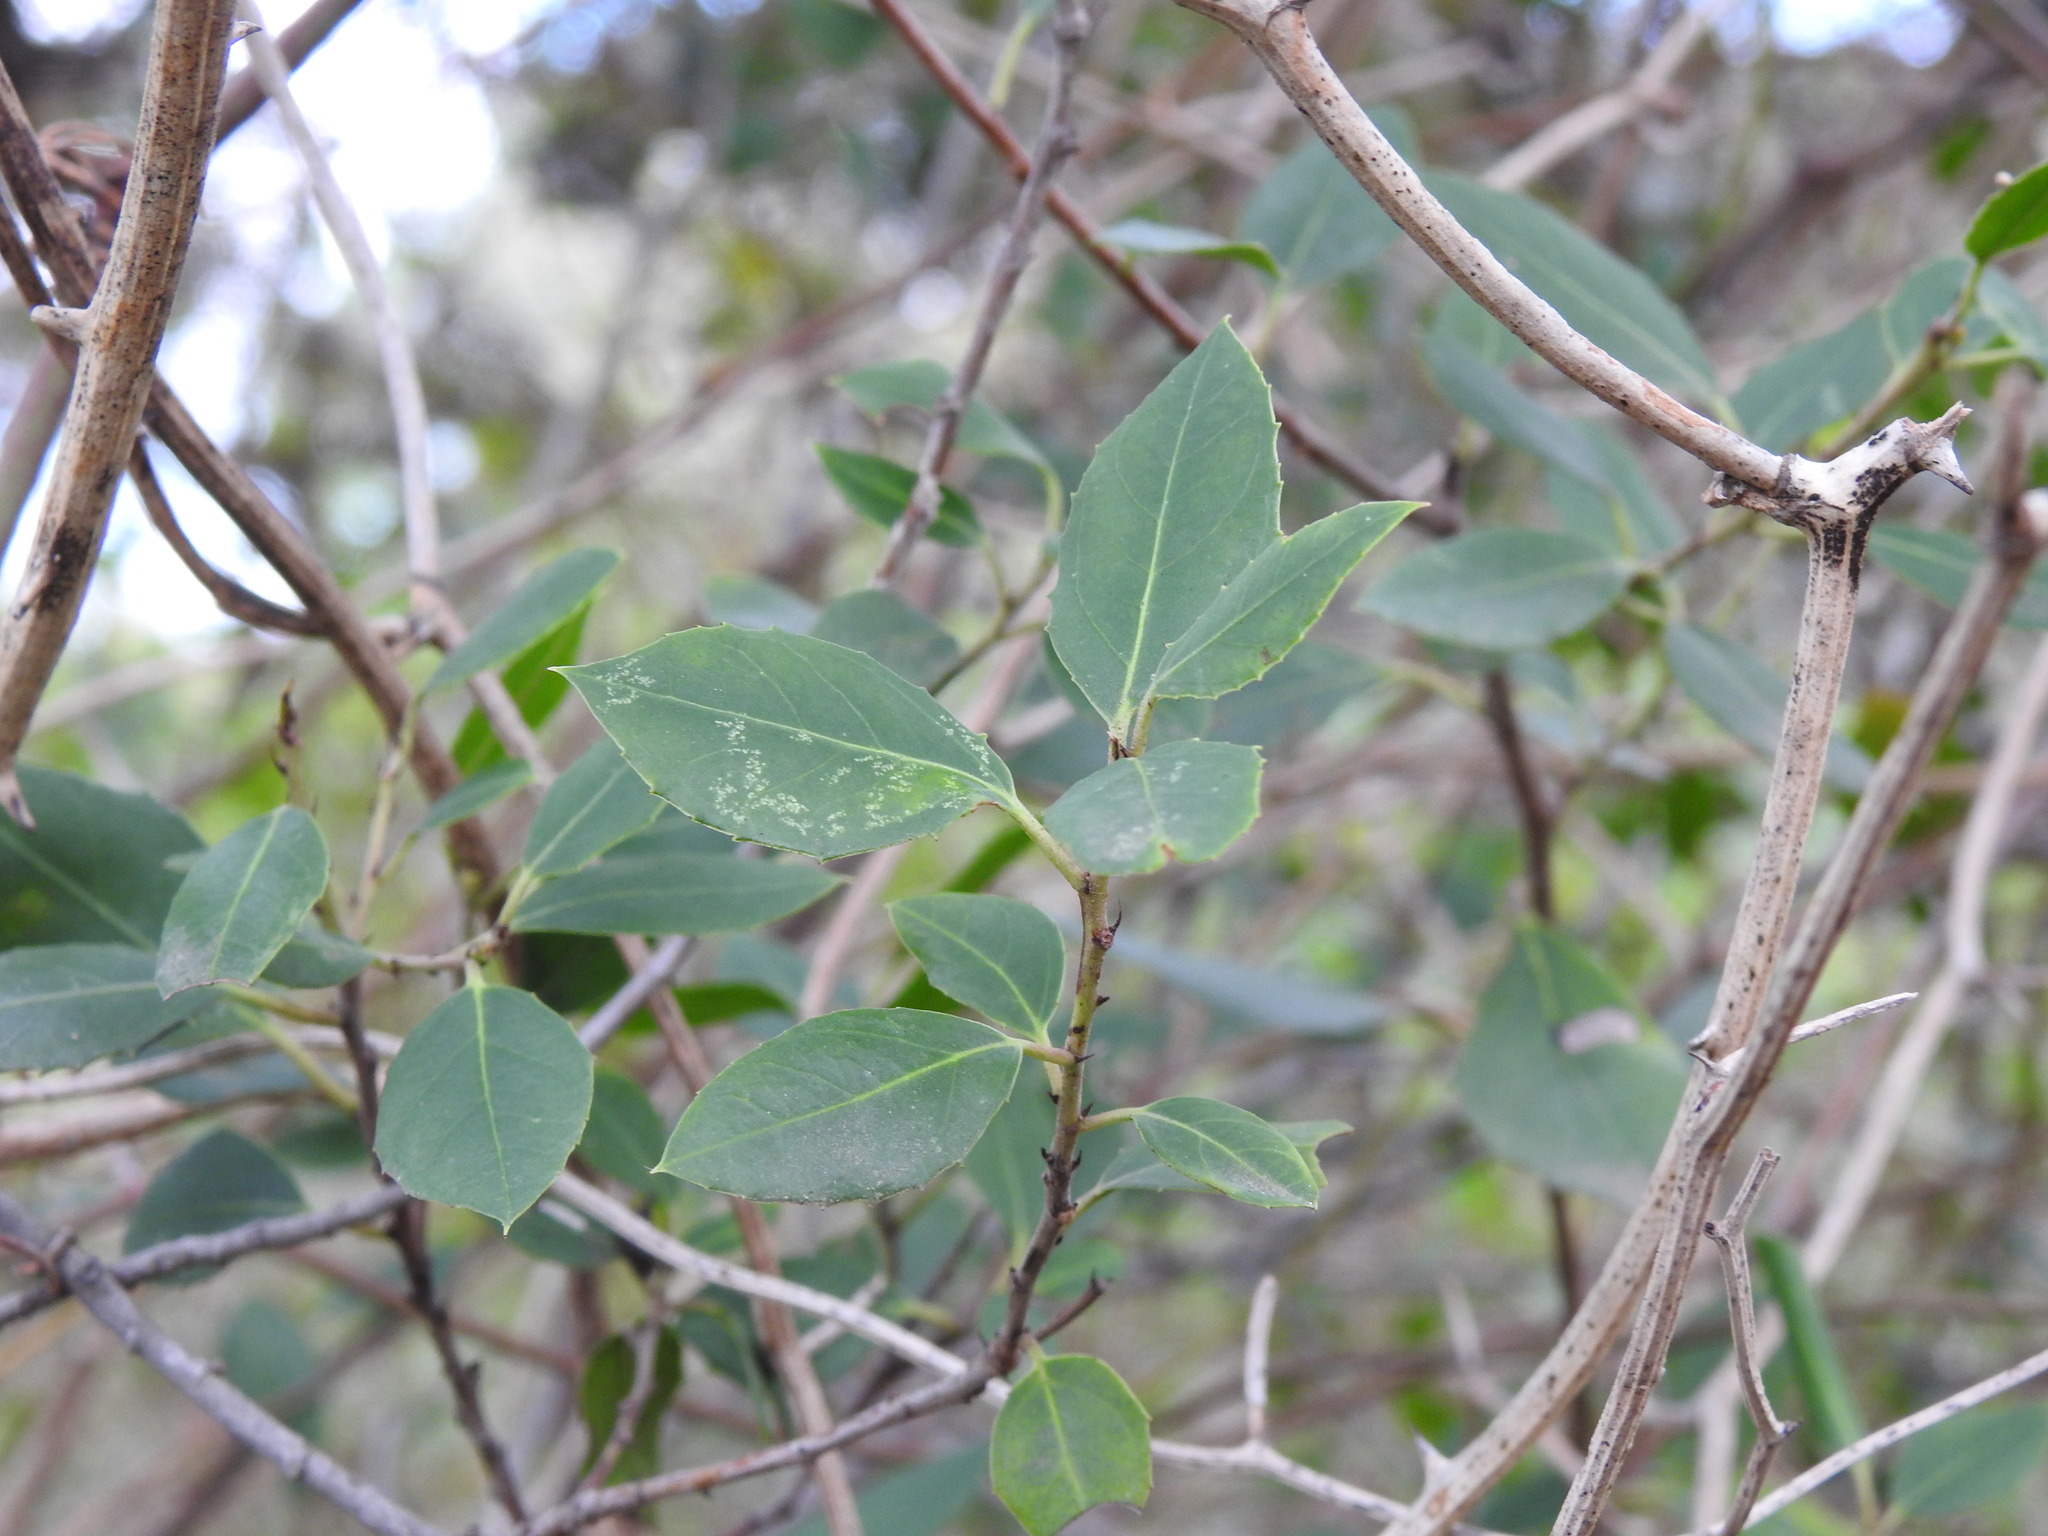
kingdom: Plantae
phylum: Tracheophyta
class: Magnoliopsida
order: Rosales
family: Rhamnaceae
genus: Rhamnus
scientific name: Rhamnus alaternus
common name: Mediterranean buckthorn
